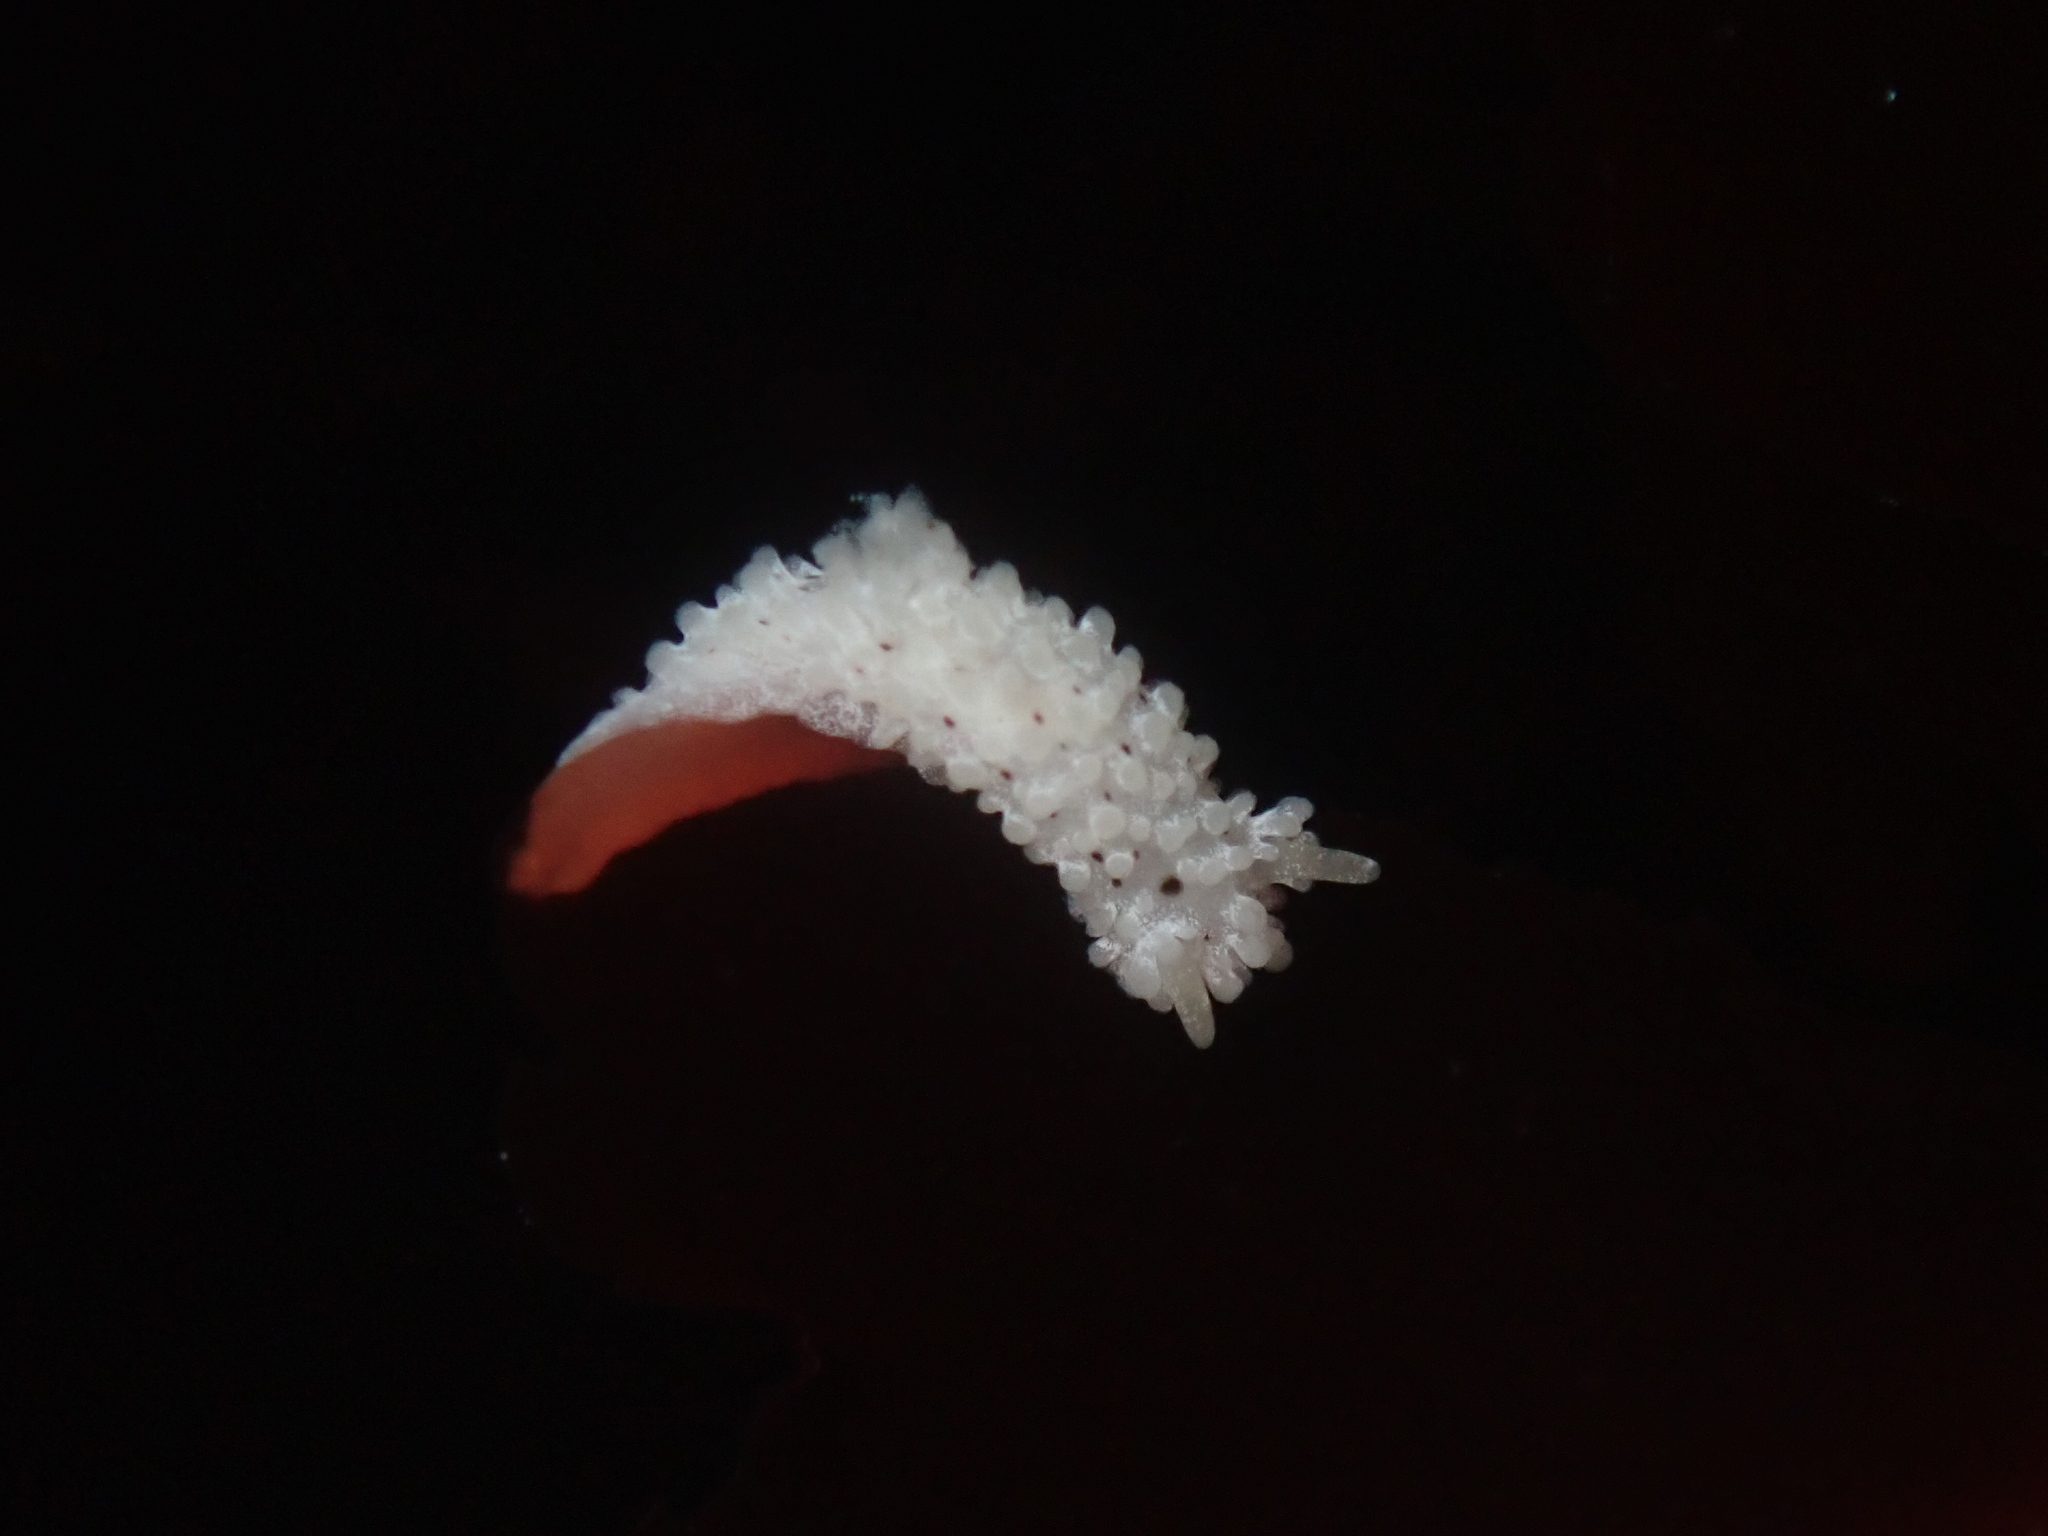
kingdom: Animalia
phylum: Mollusca
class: Gastropoda
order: Nudibranchia
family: Aegiridae
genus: Aegires
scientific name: Aegires albopunctatus
